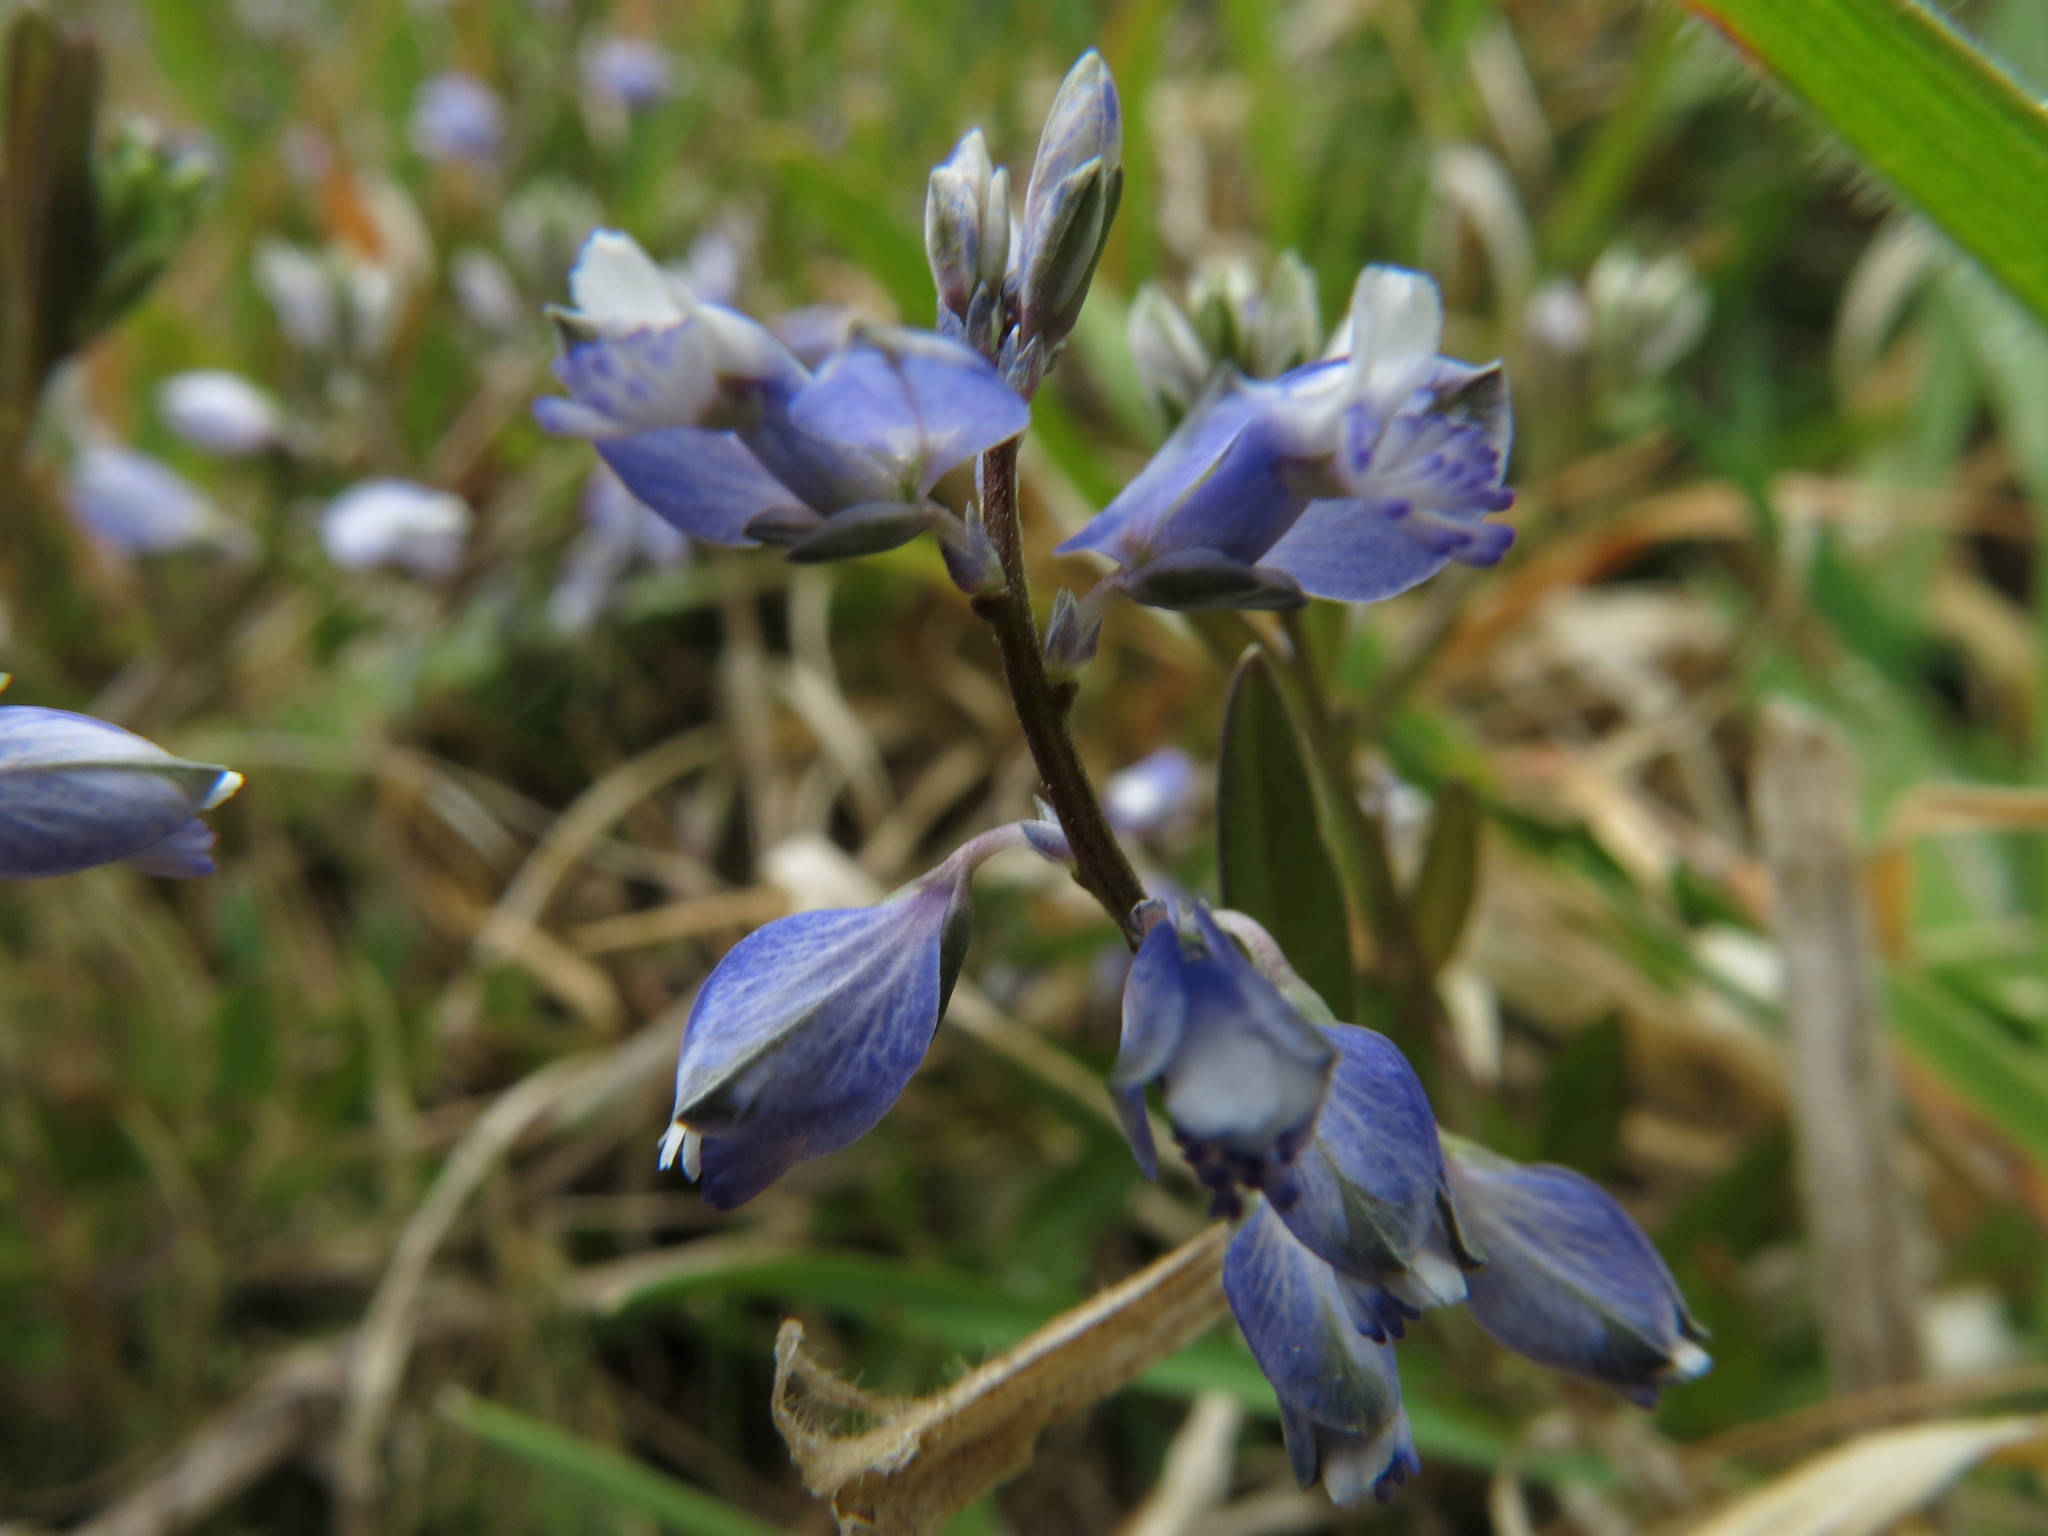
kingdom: Plantae
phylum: Tracheophyta
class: Magnoliopsida
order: Fabales
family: Polygalaceae
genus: Polygala
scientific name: Polygala serpyllifolia
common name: Heath milkwort
